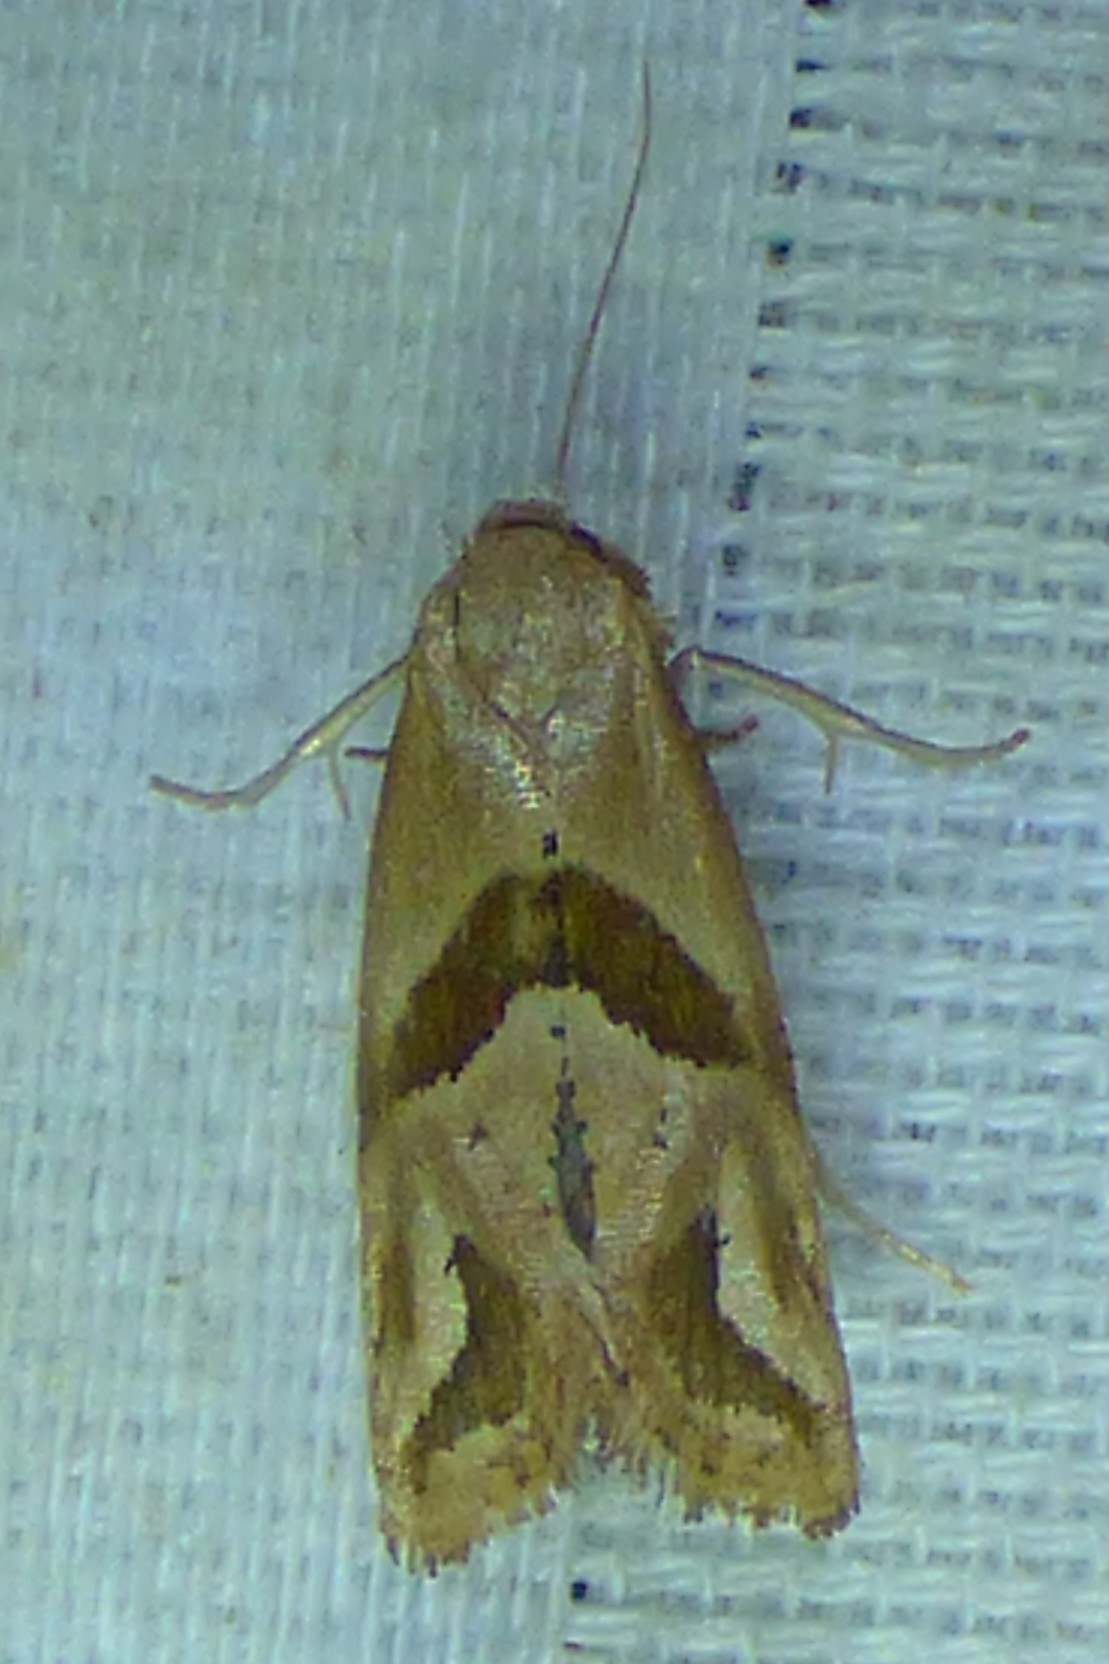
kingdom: Animalia
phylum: Arthropoda
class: Insecta
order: Lepidoptera
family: Tortricidae
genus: Eugnosta
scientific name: Eugnosta sartana
